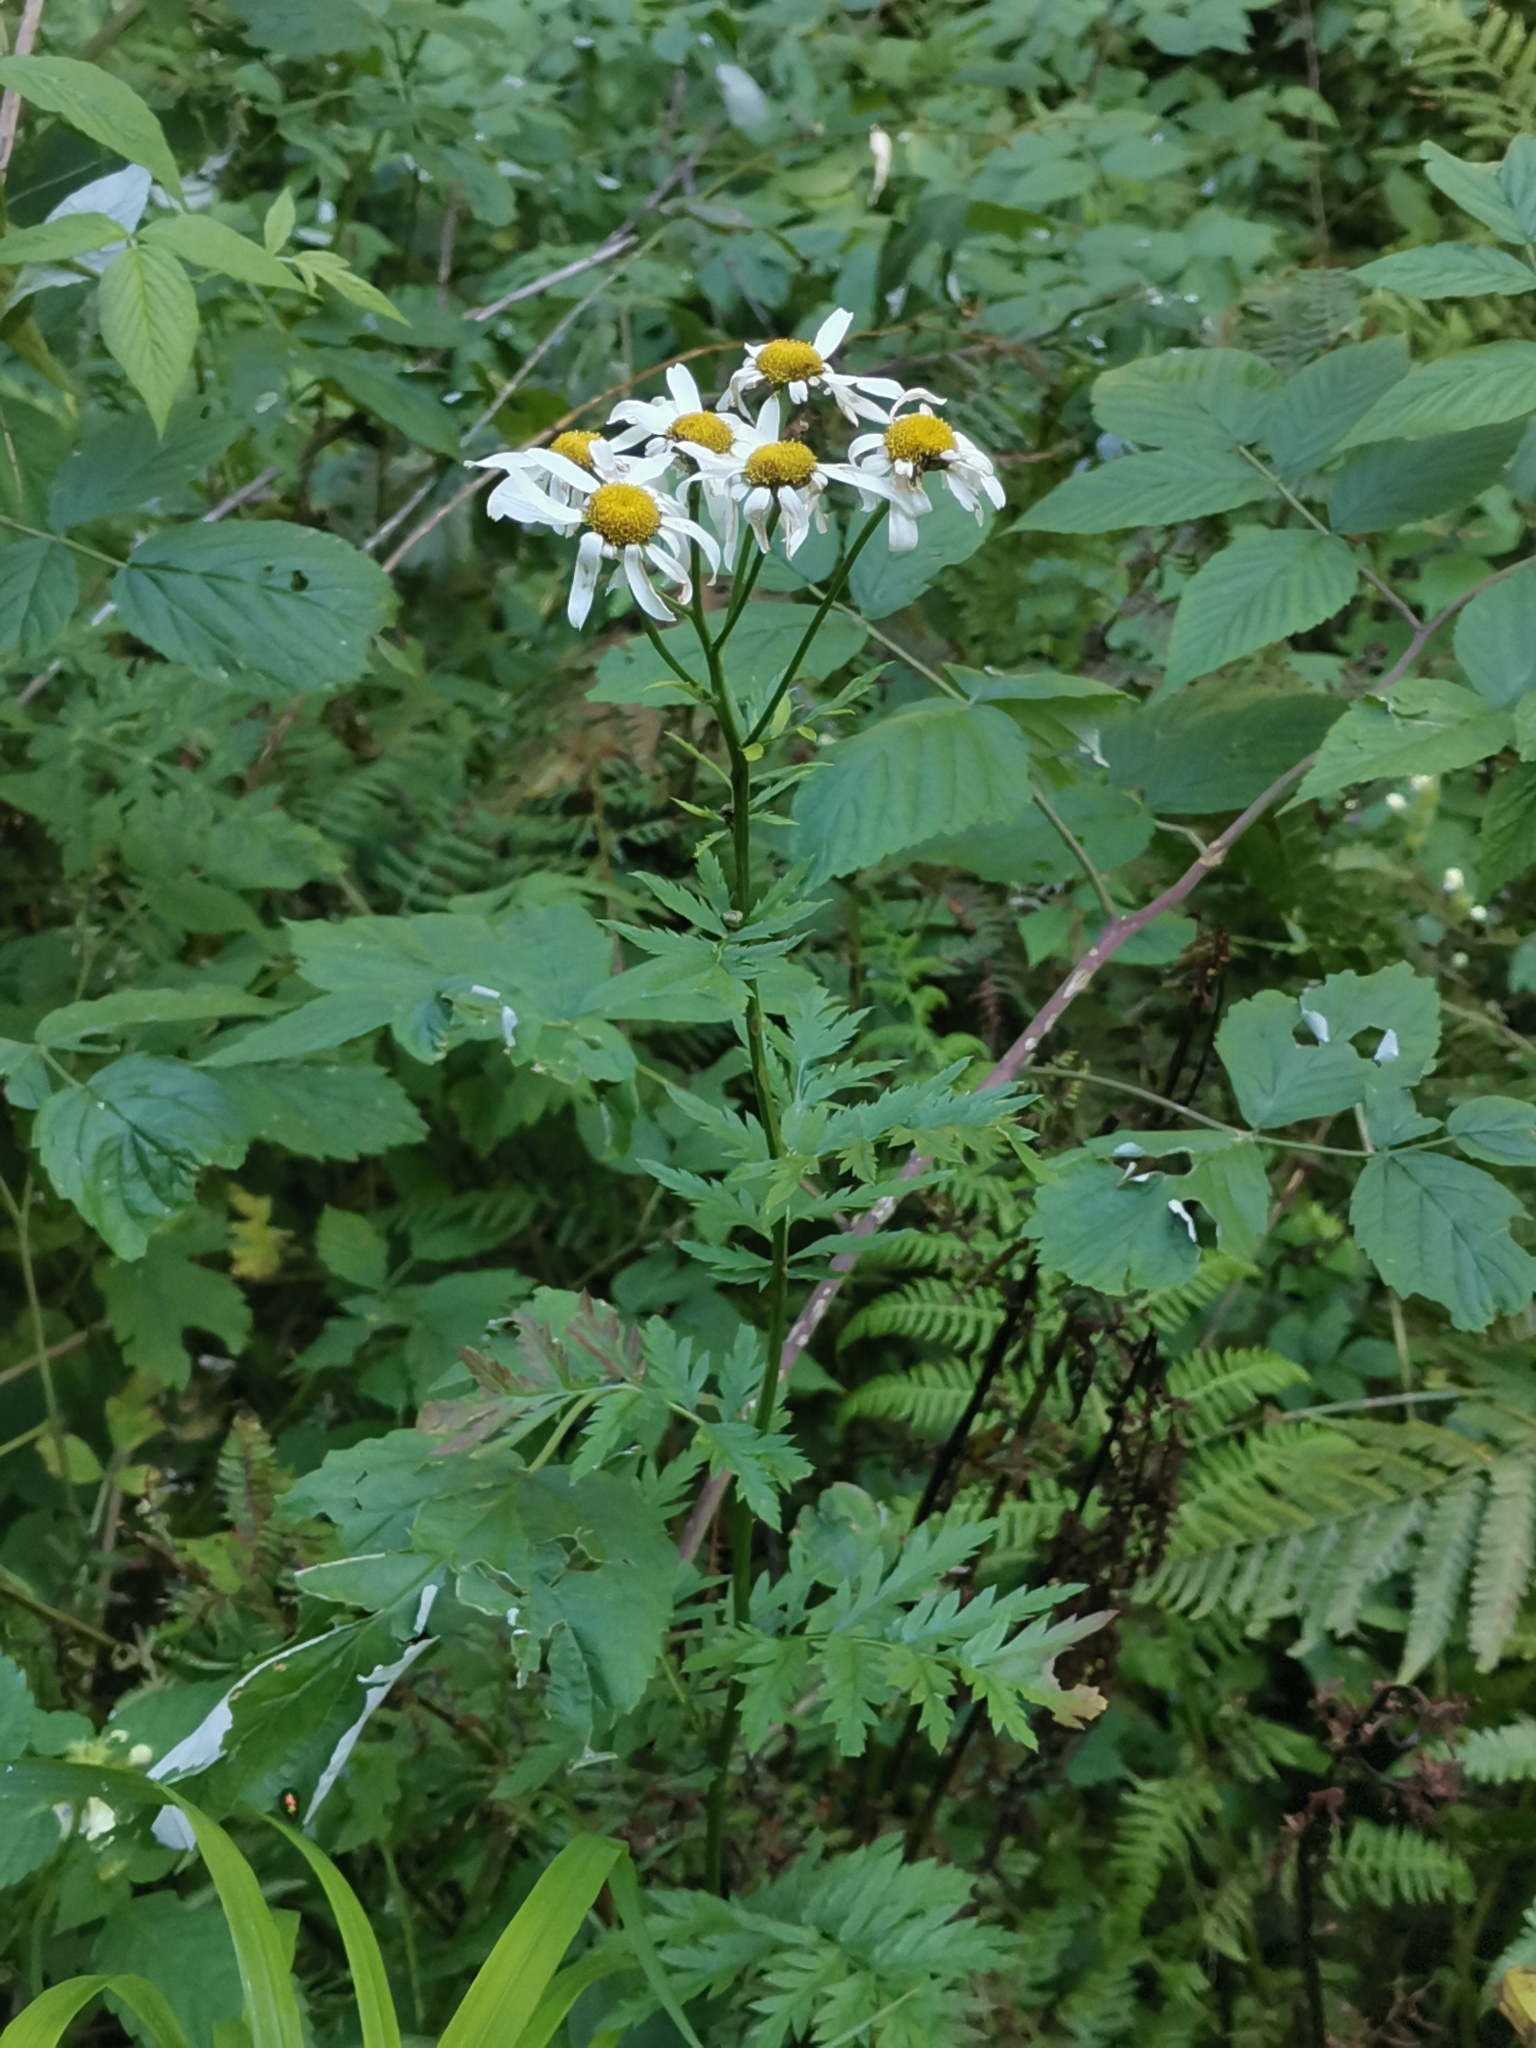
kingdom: Plantae
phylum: Tracheophyta
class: Magnoliopsida
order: Asterales
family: Asteraceae
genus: Tanacetum
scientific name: Tanacetum corymbosum
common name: Scentless feverfew
